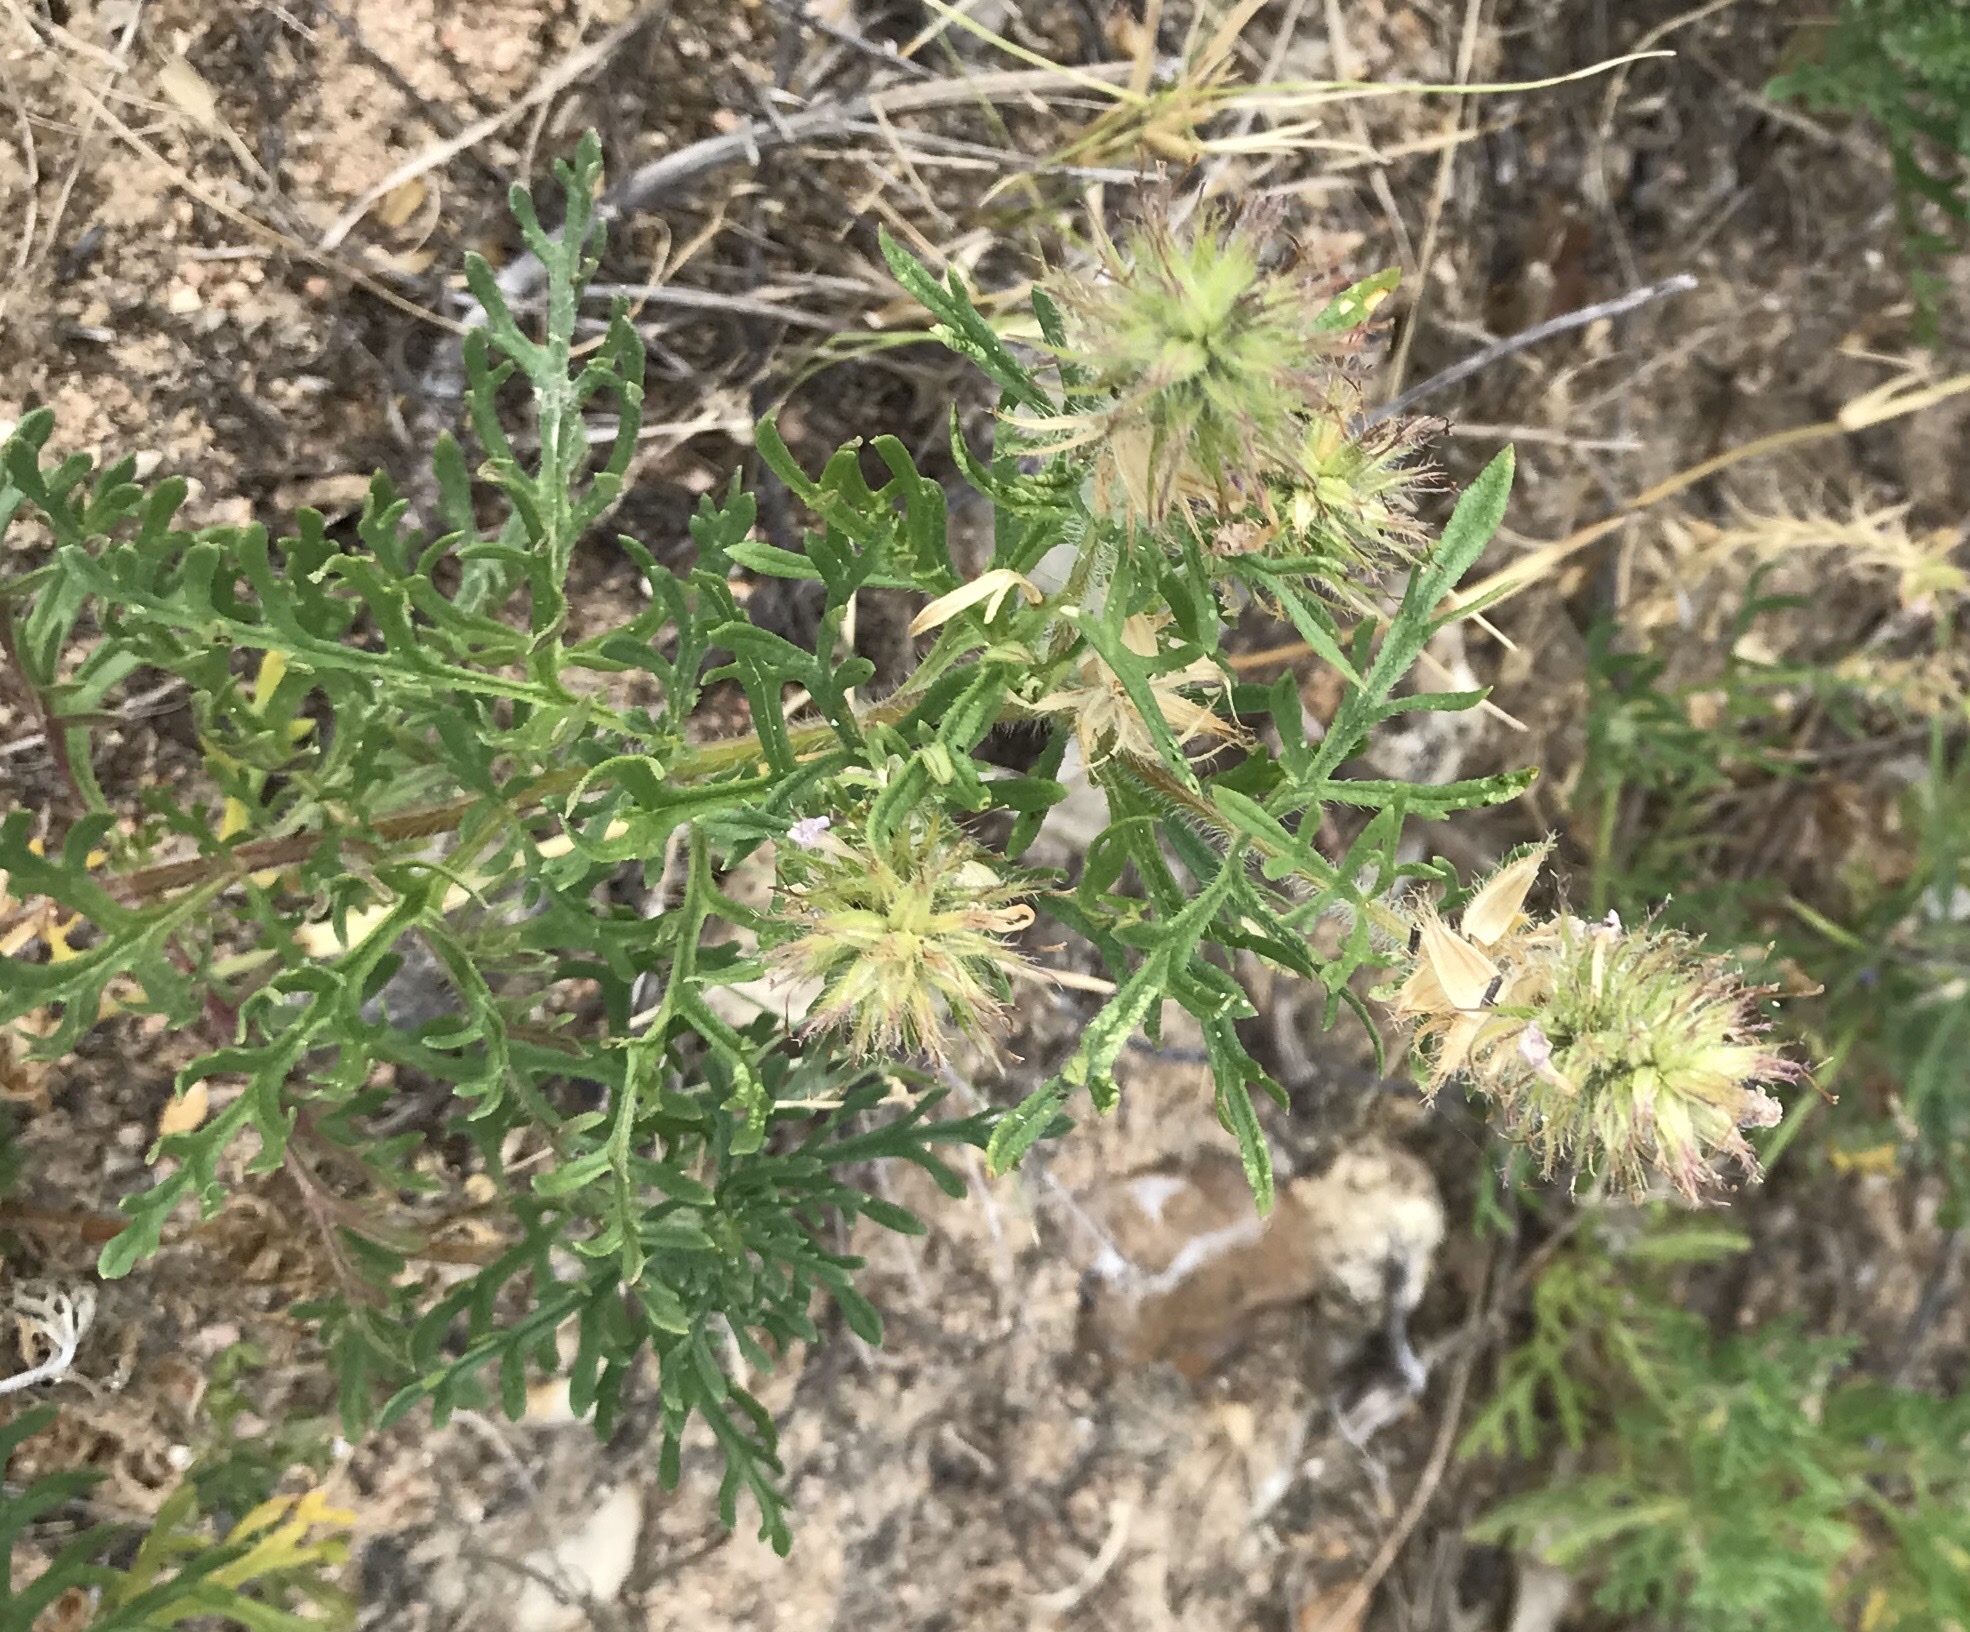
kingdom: Plantae
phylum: Tracheophyta
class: Magnoliopsida
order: Lamiales
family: Verbenaceae
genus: Verbena
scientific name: Verbena bipinnatifida
